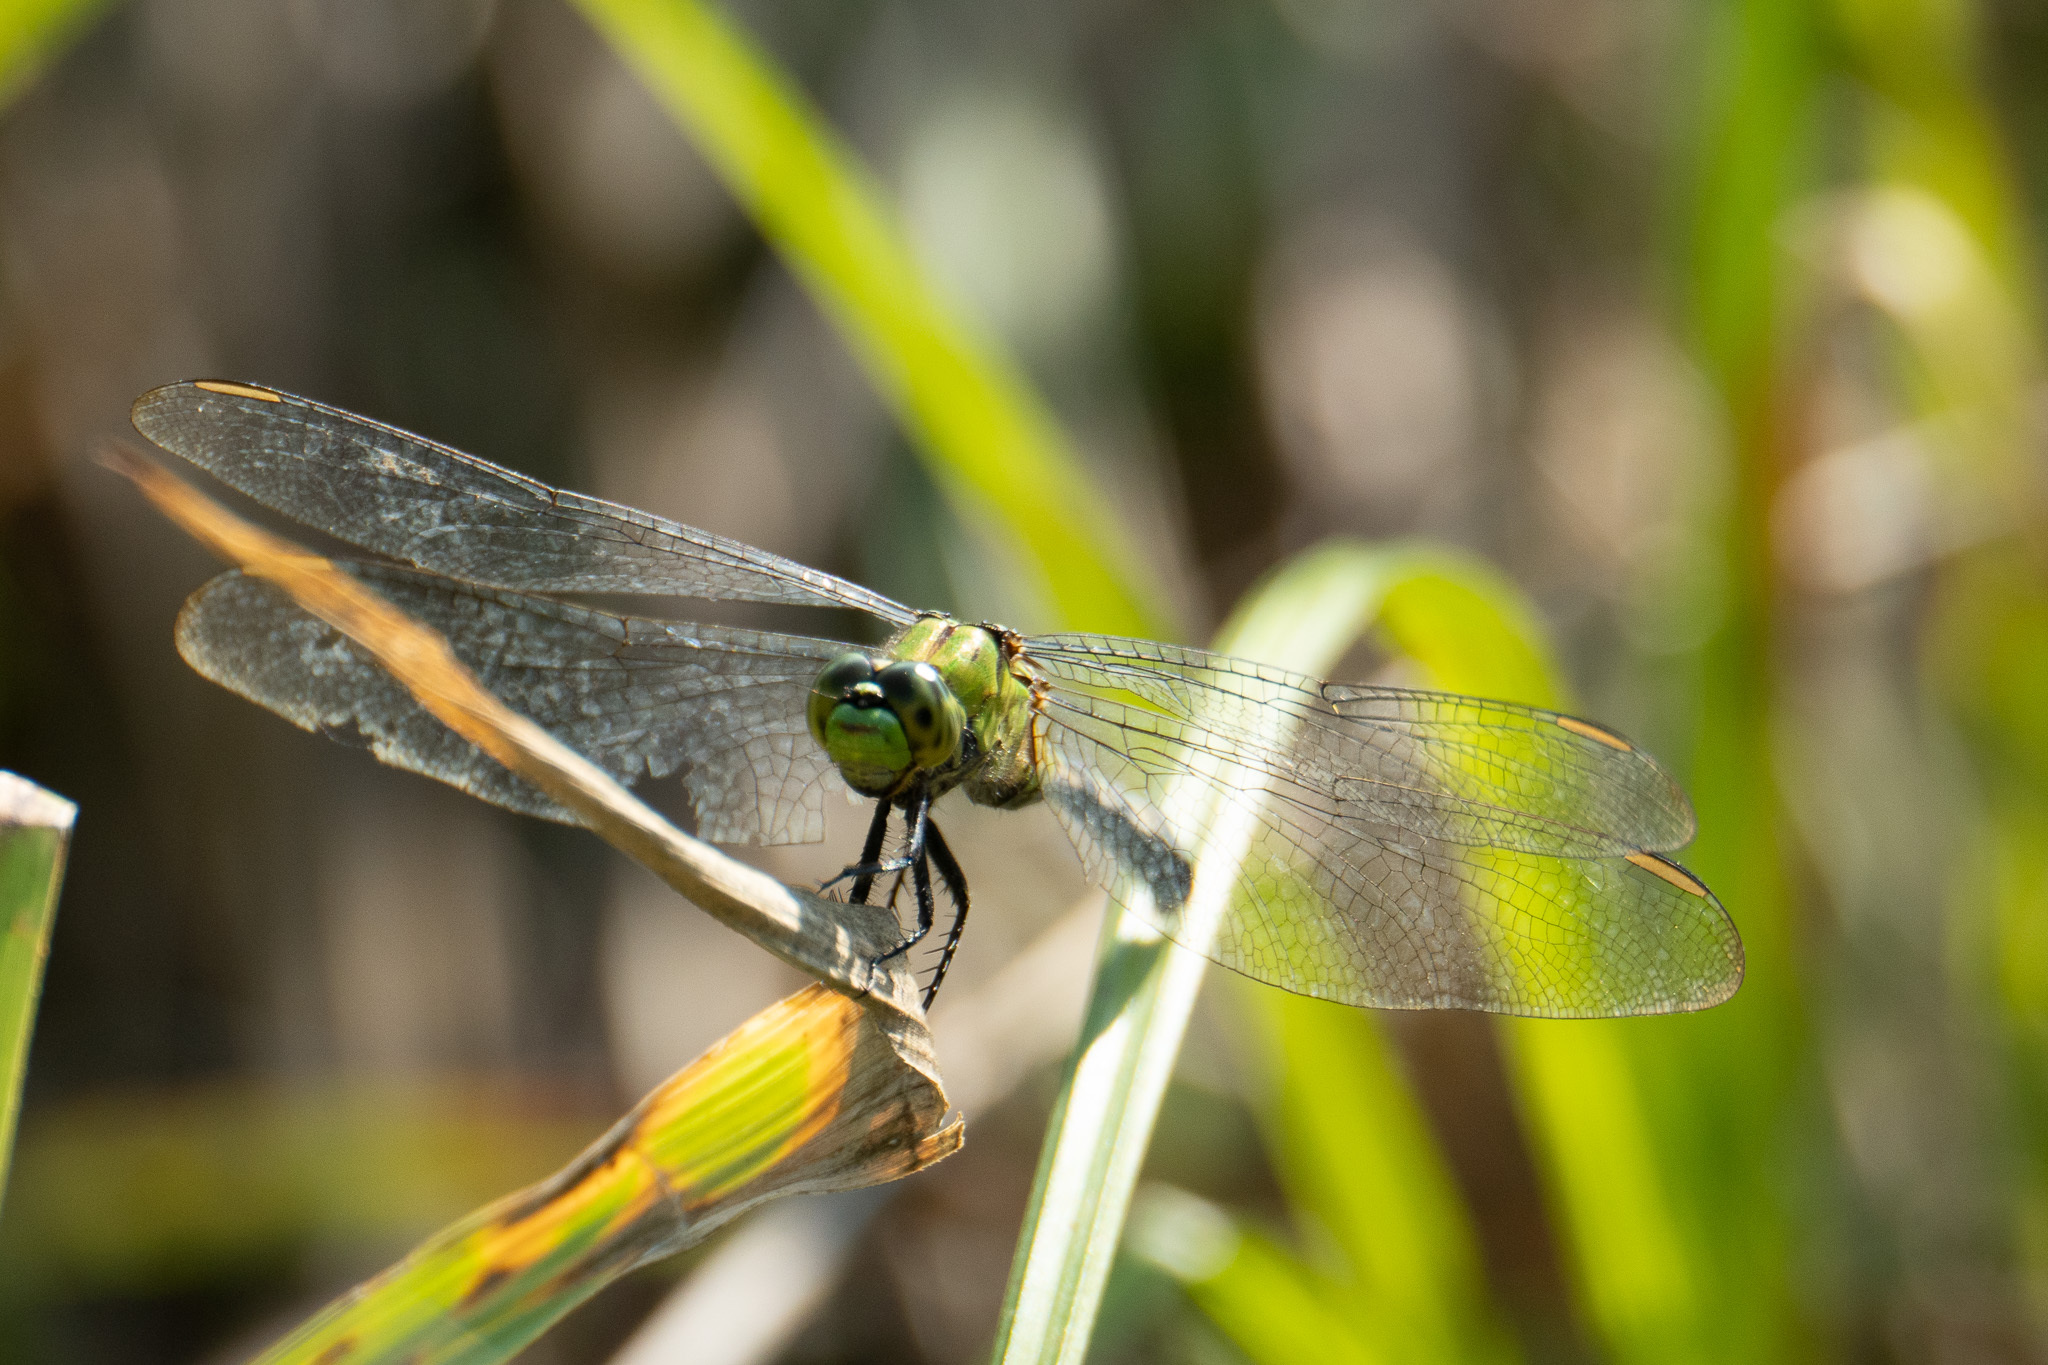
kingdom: Animalia
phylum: Arthropoda
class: Insecta
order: Odonata
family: Libellulidae
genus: Erythemis
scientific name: Erythemis simplicicollis
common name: Eastern pondhawk
